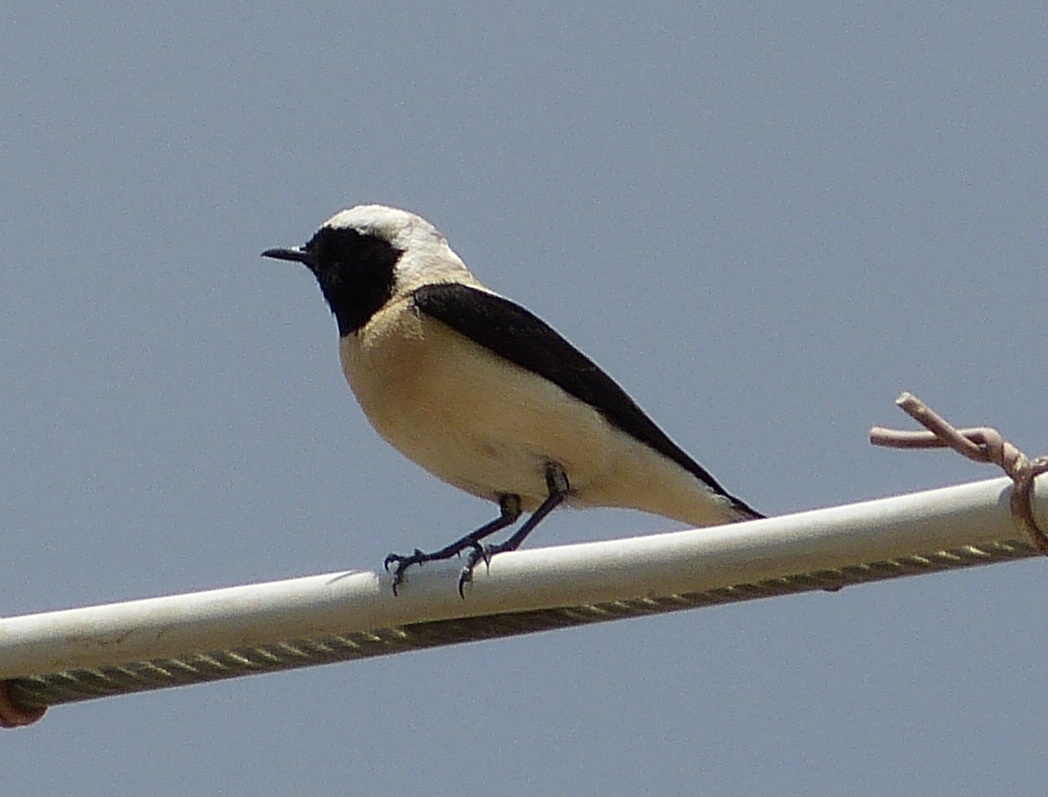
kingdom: Animalia
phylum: Chordata
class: Aves
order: Passeriformes
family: Muscicapidae
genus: Oenanthe
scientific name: Oenanthe hispanica
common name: Black-eared wheatear
